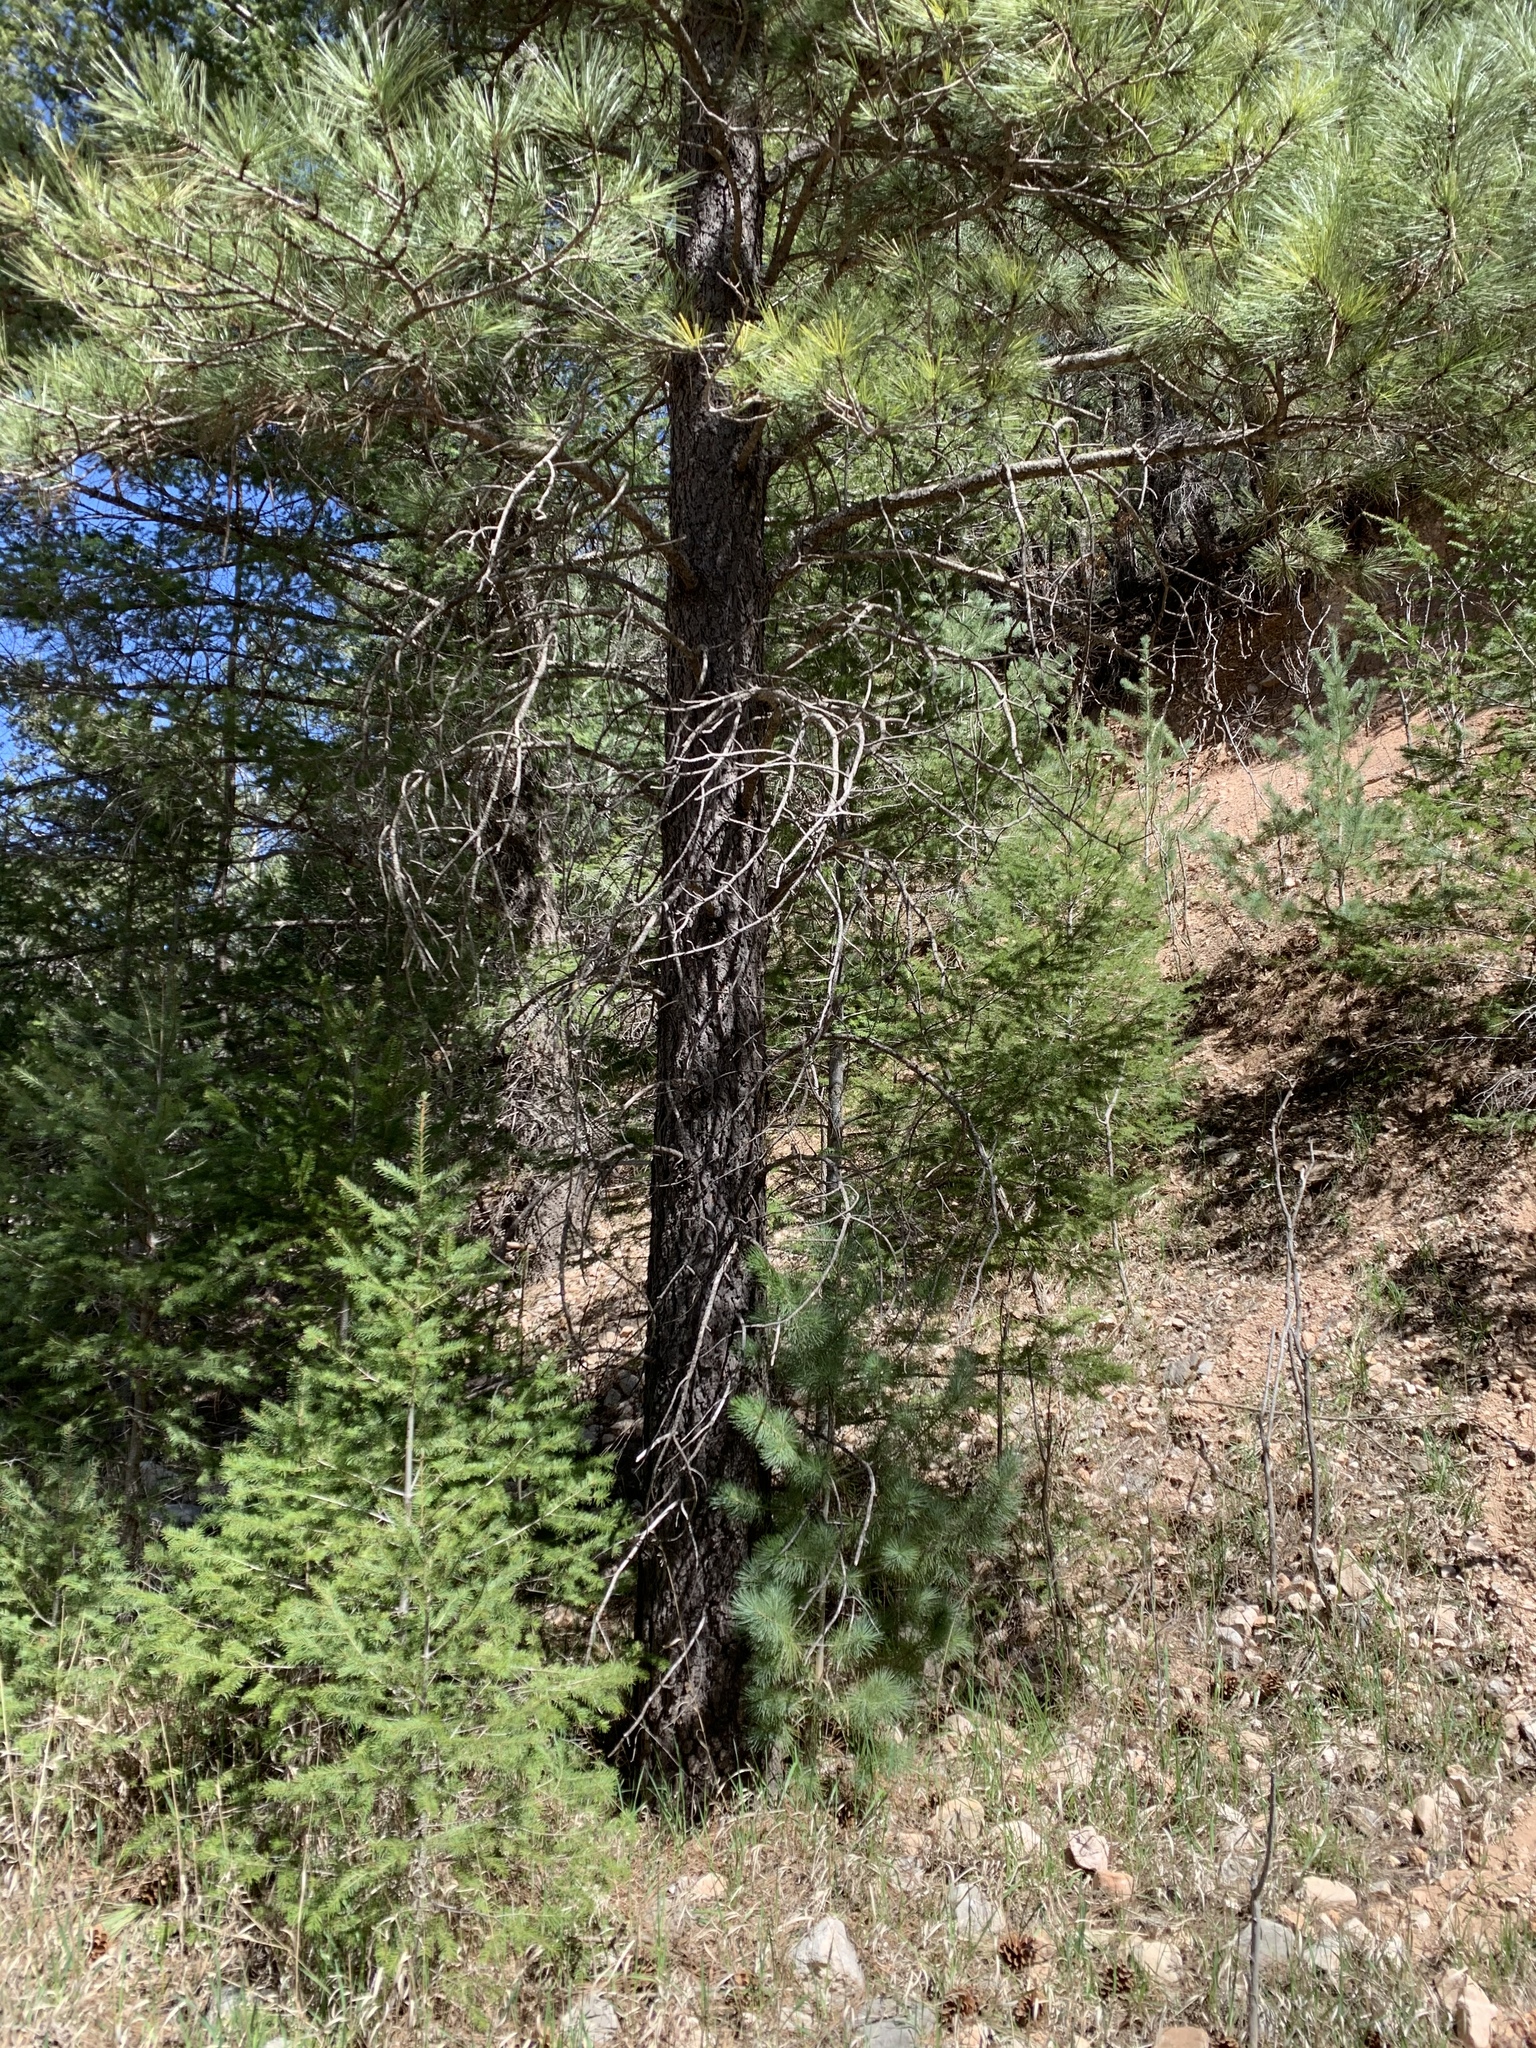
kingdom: Plantae
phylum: Tracheophyta
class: Pinopsida
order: Pinales
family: Pinaceae
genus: Pinus
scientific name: Pinus ponderosa
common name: Western yellow-pine
